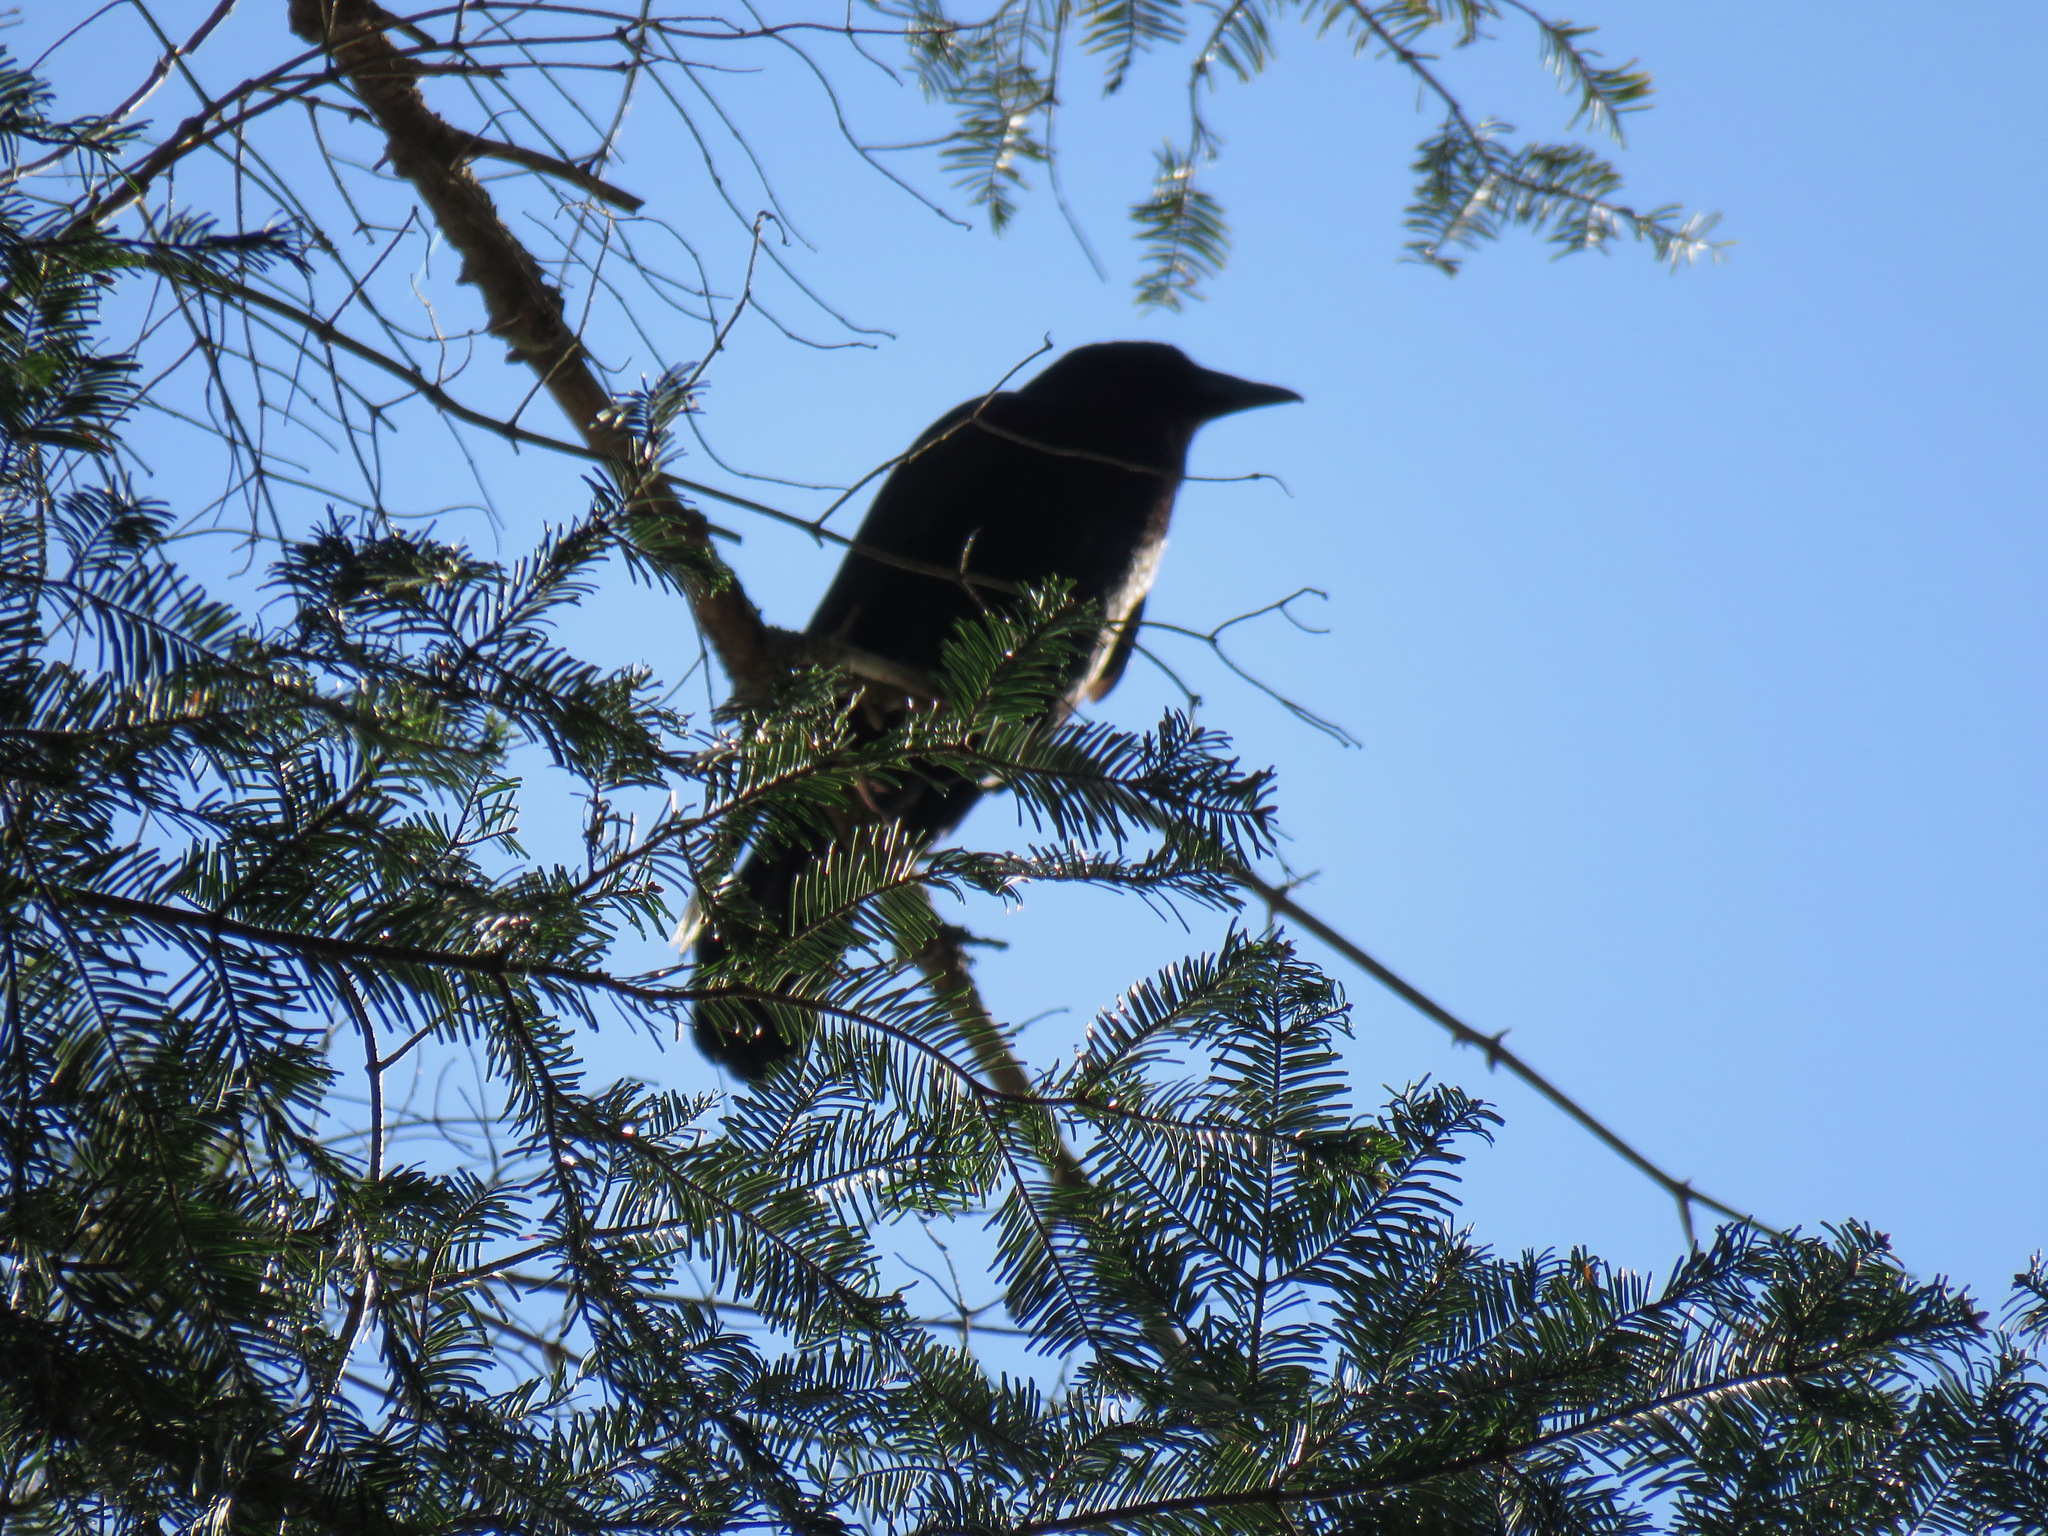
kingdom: Animalia
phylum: Chordata
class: Aves
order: Passeriformes
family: Corvidae
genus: Corvus
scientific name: Corvus brachyrhynchos
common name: American crow
